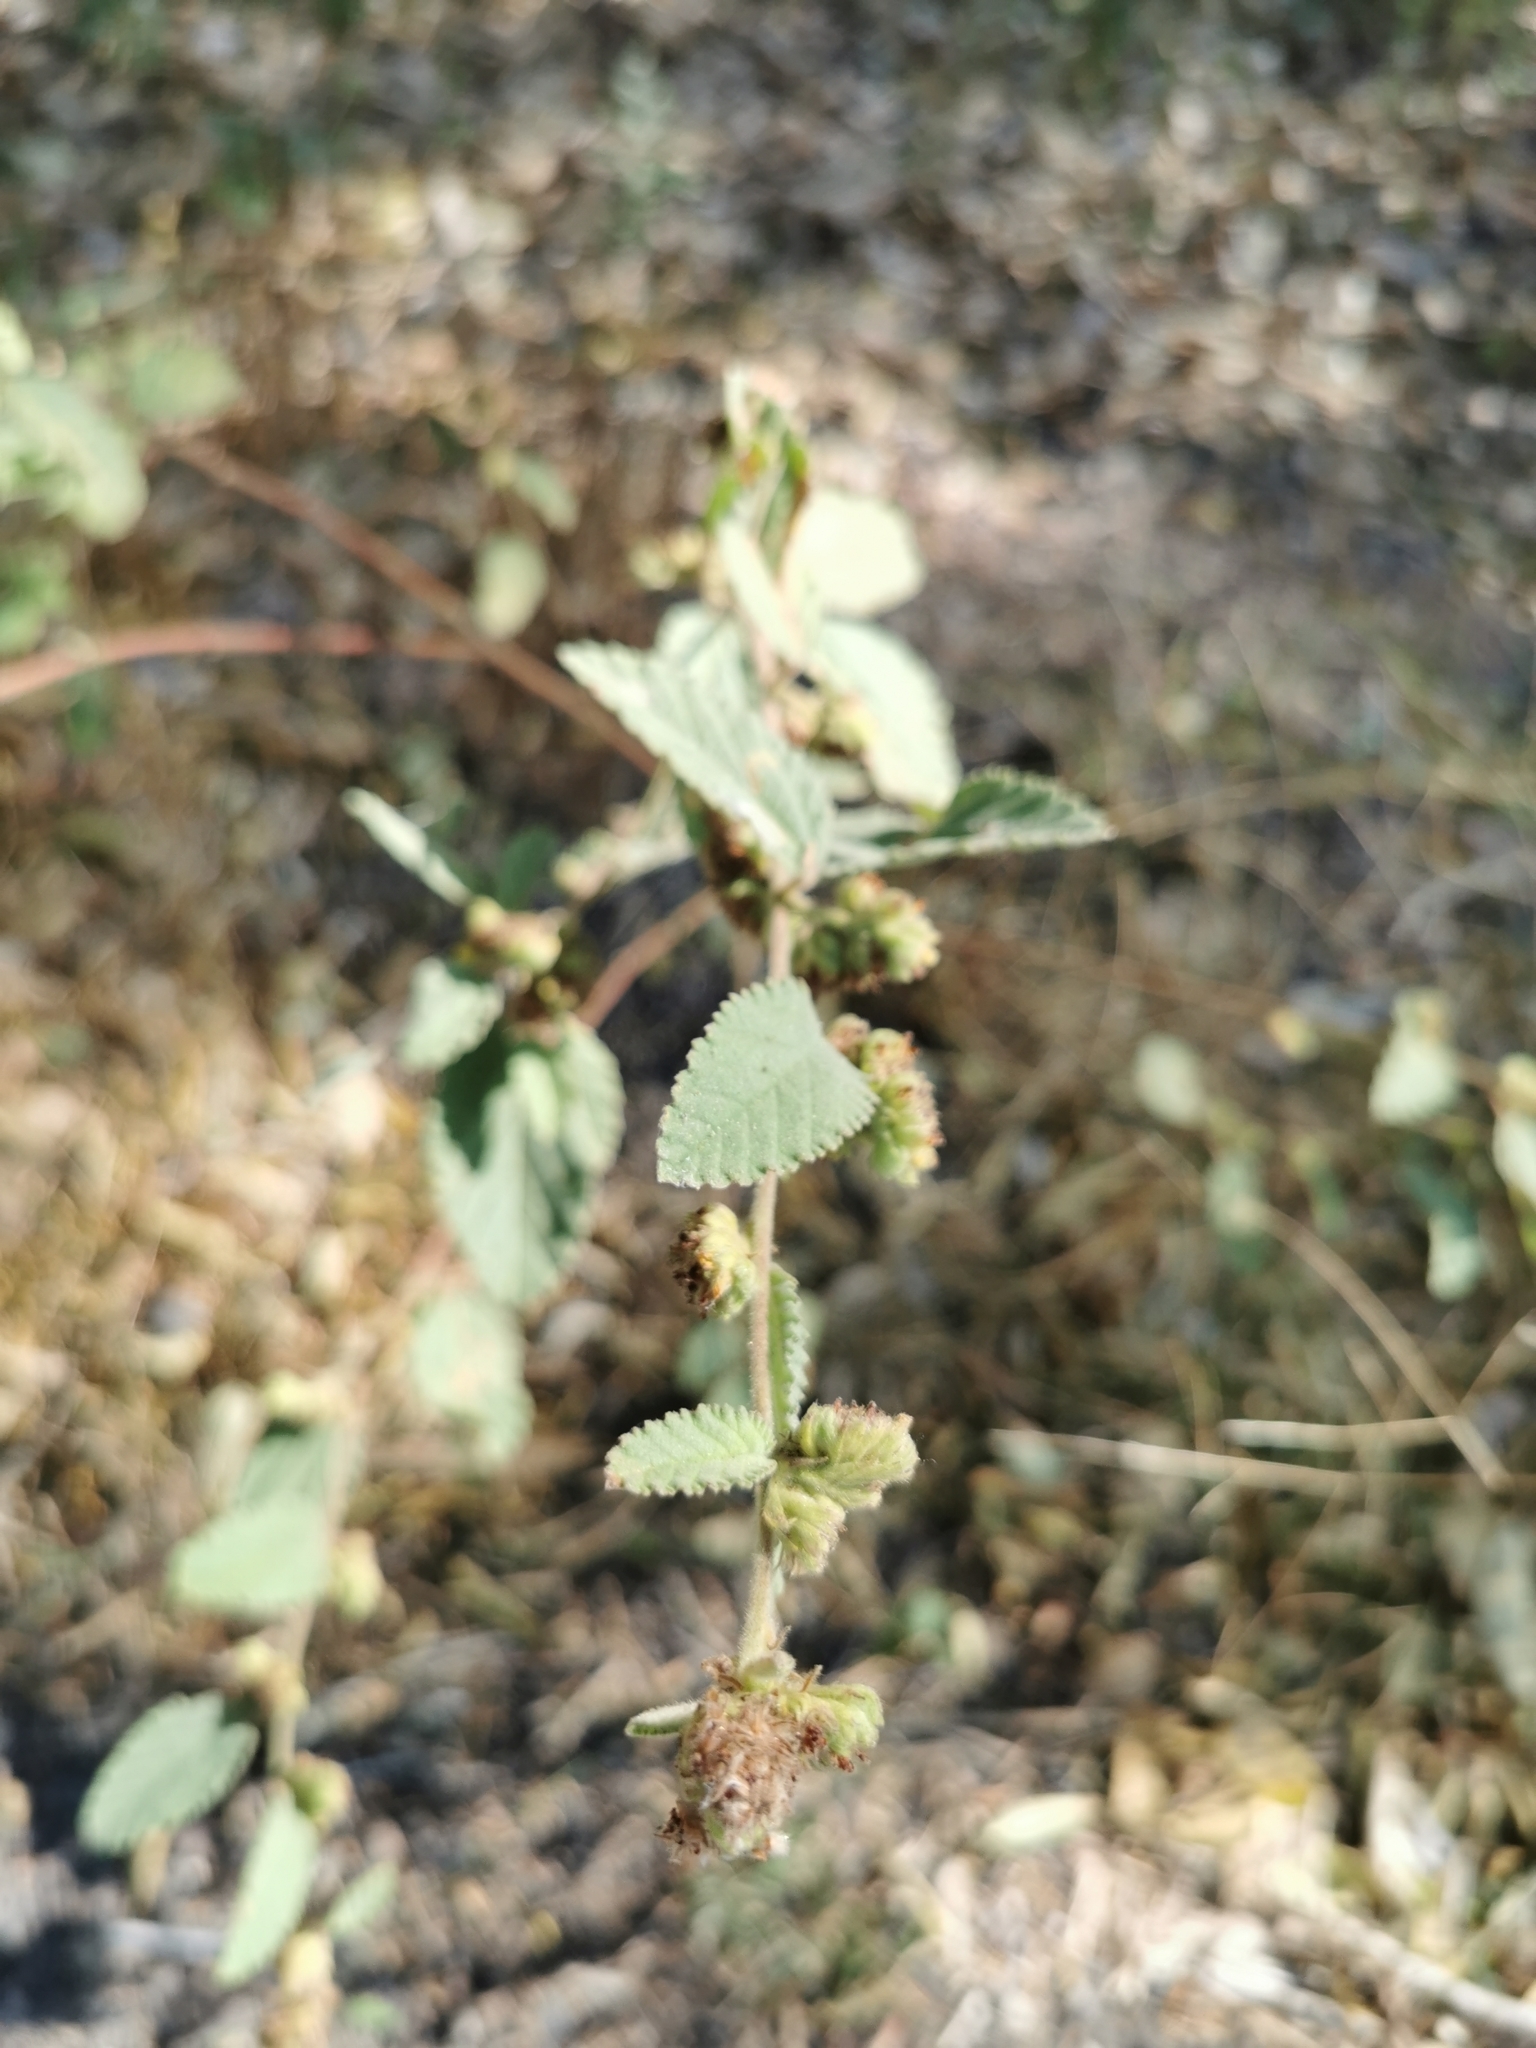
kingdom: Plantae
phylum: Tracheophyta
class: Magnoliopsida
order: Malvales
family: Malvaceae
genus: Waltheria
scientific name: Waltheria indica
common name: Leather-coat
